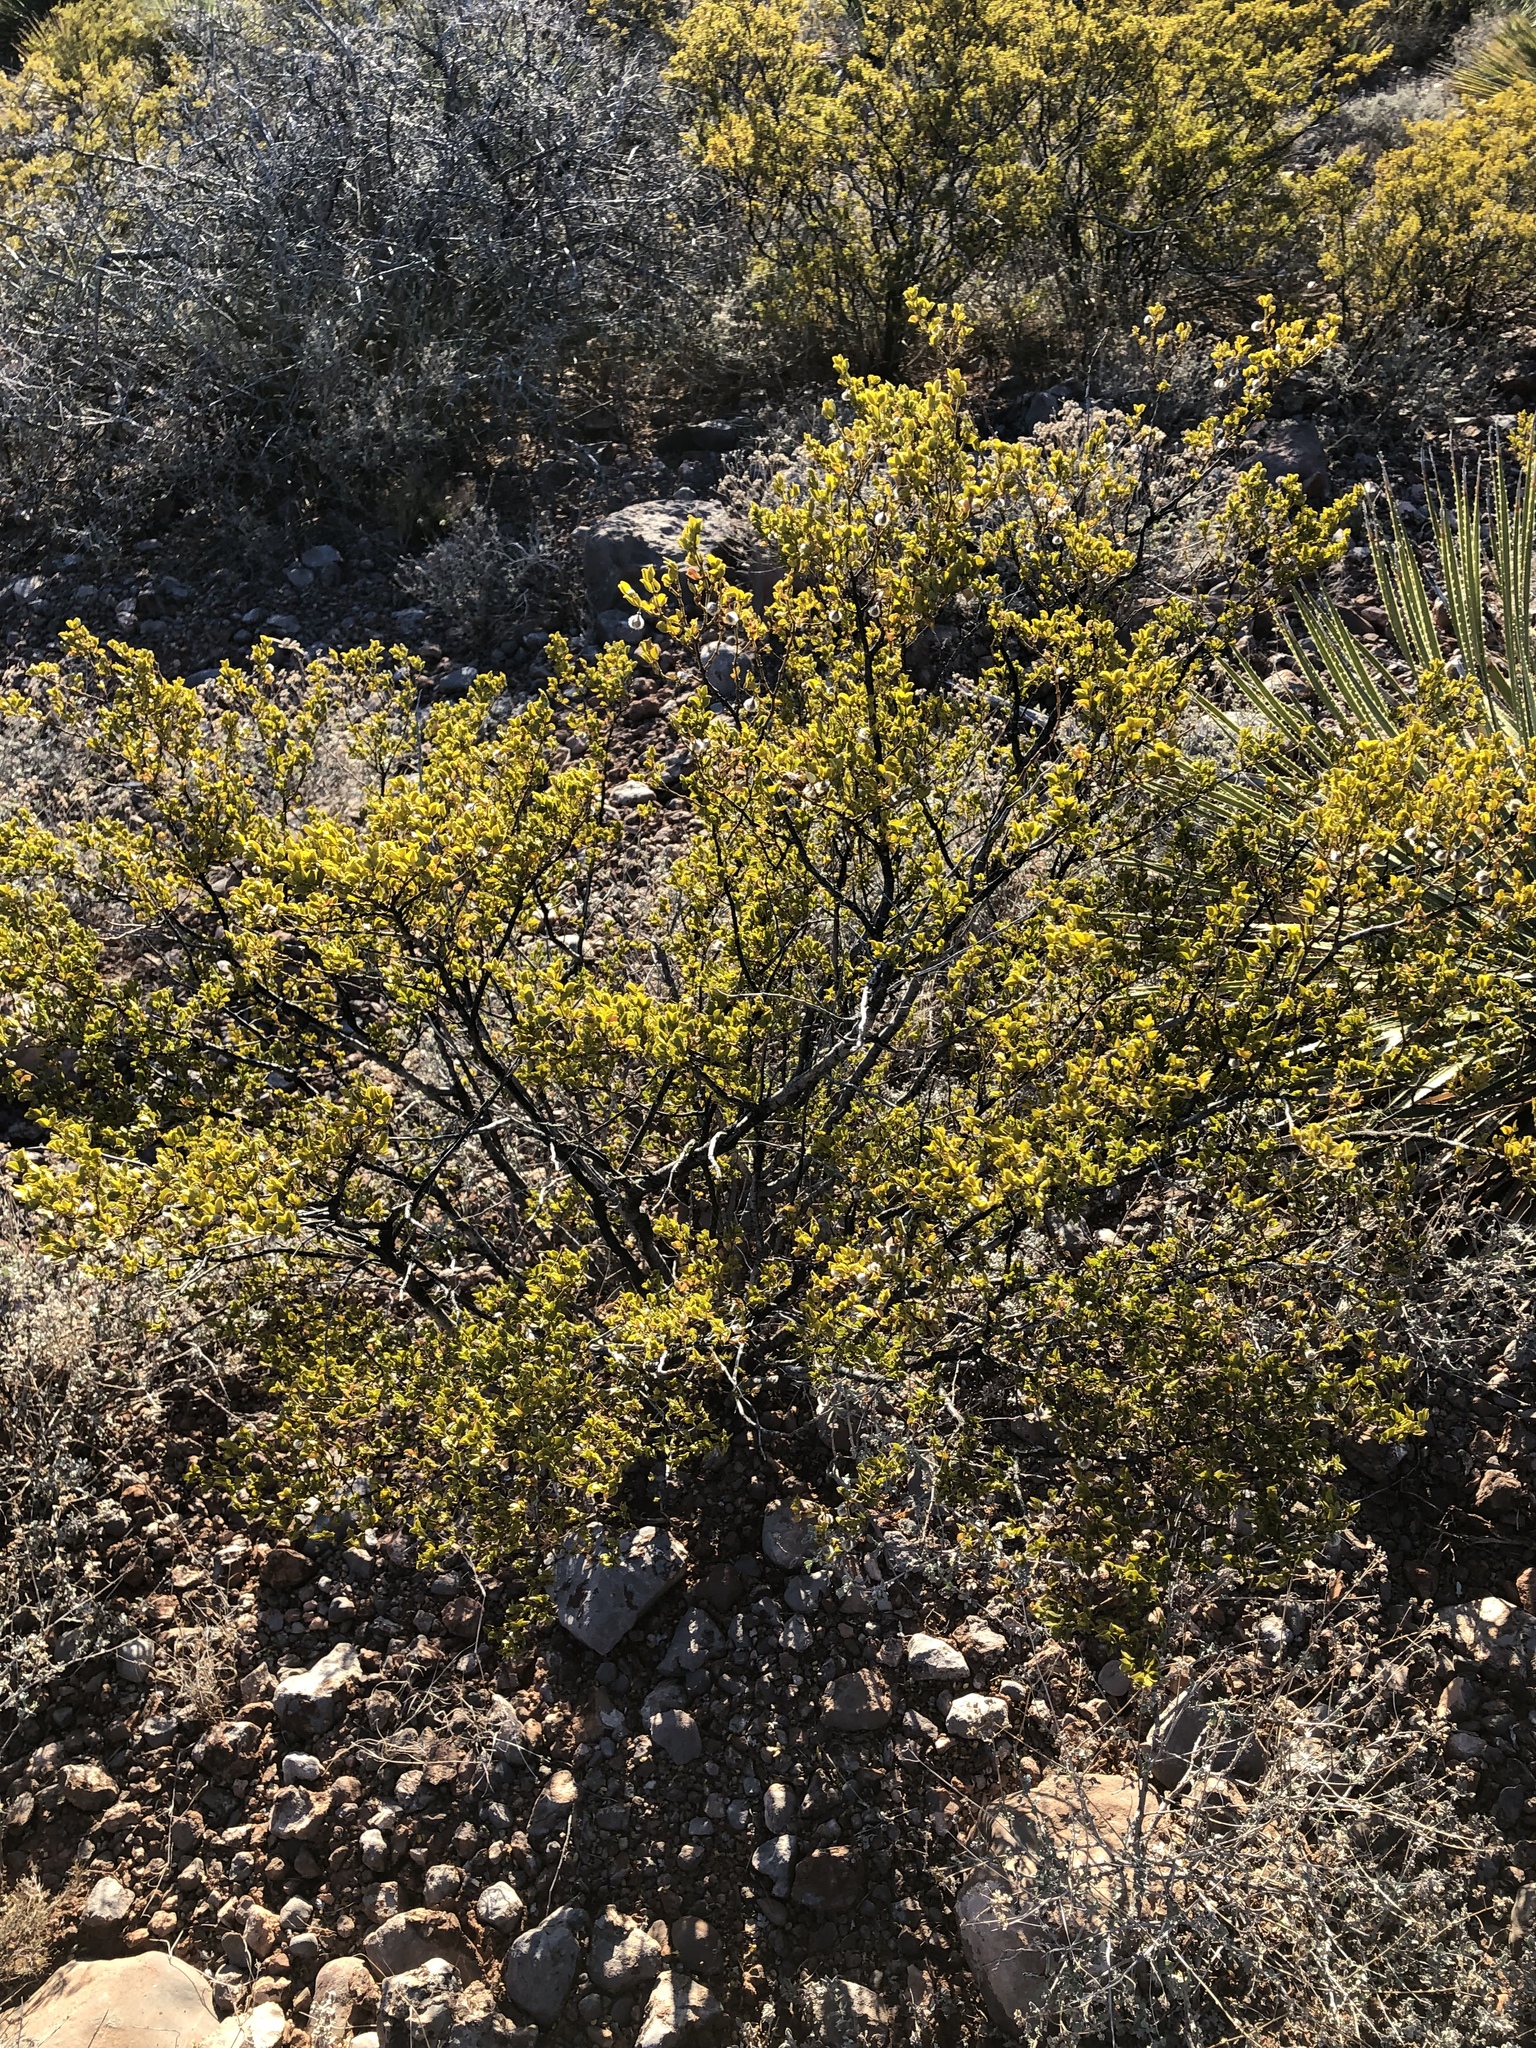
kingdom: Plantae
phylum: Tracheophyta
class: Magnoliopsida
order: Zygophyllales
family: Zygophyllaceae
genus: Larrea
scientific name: Larrea tridentata
